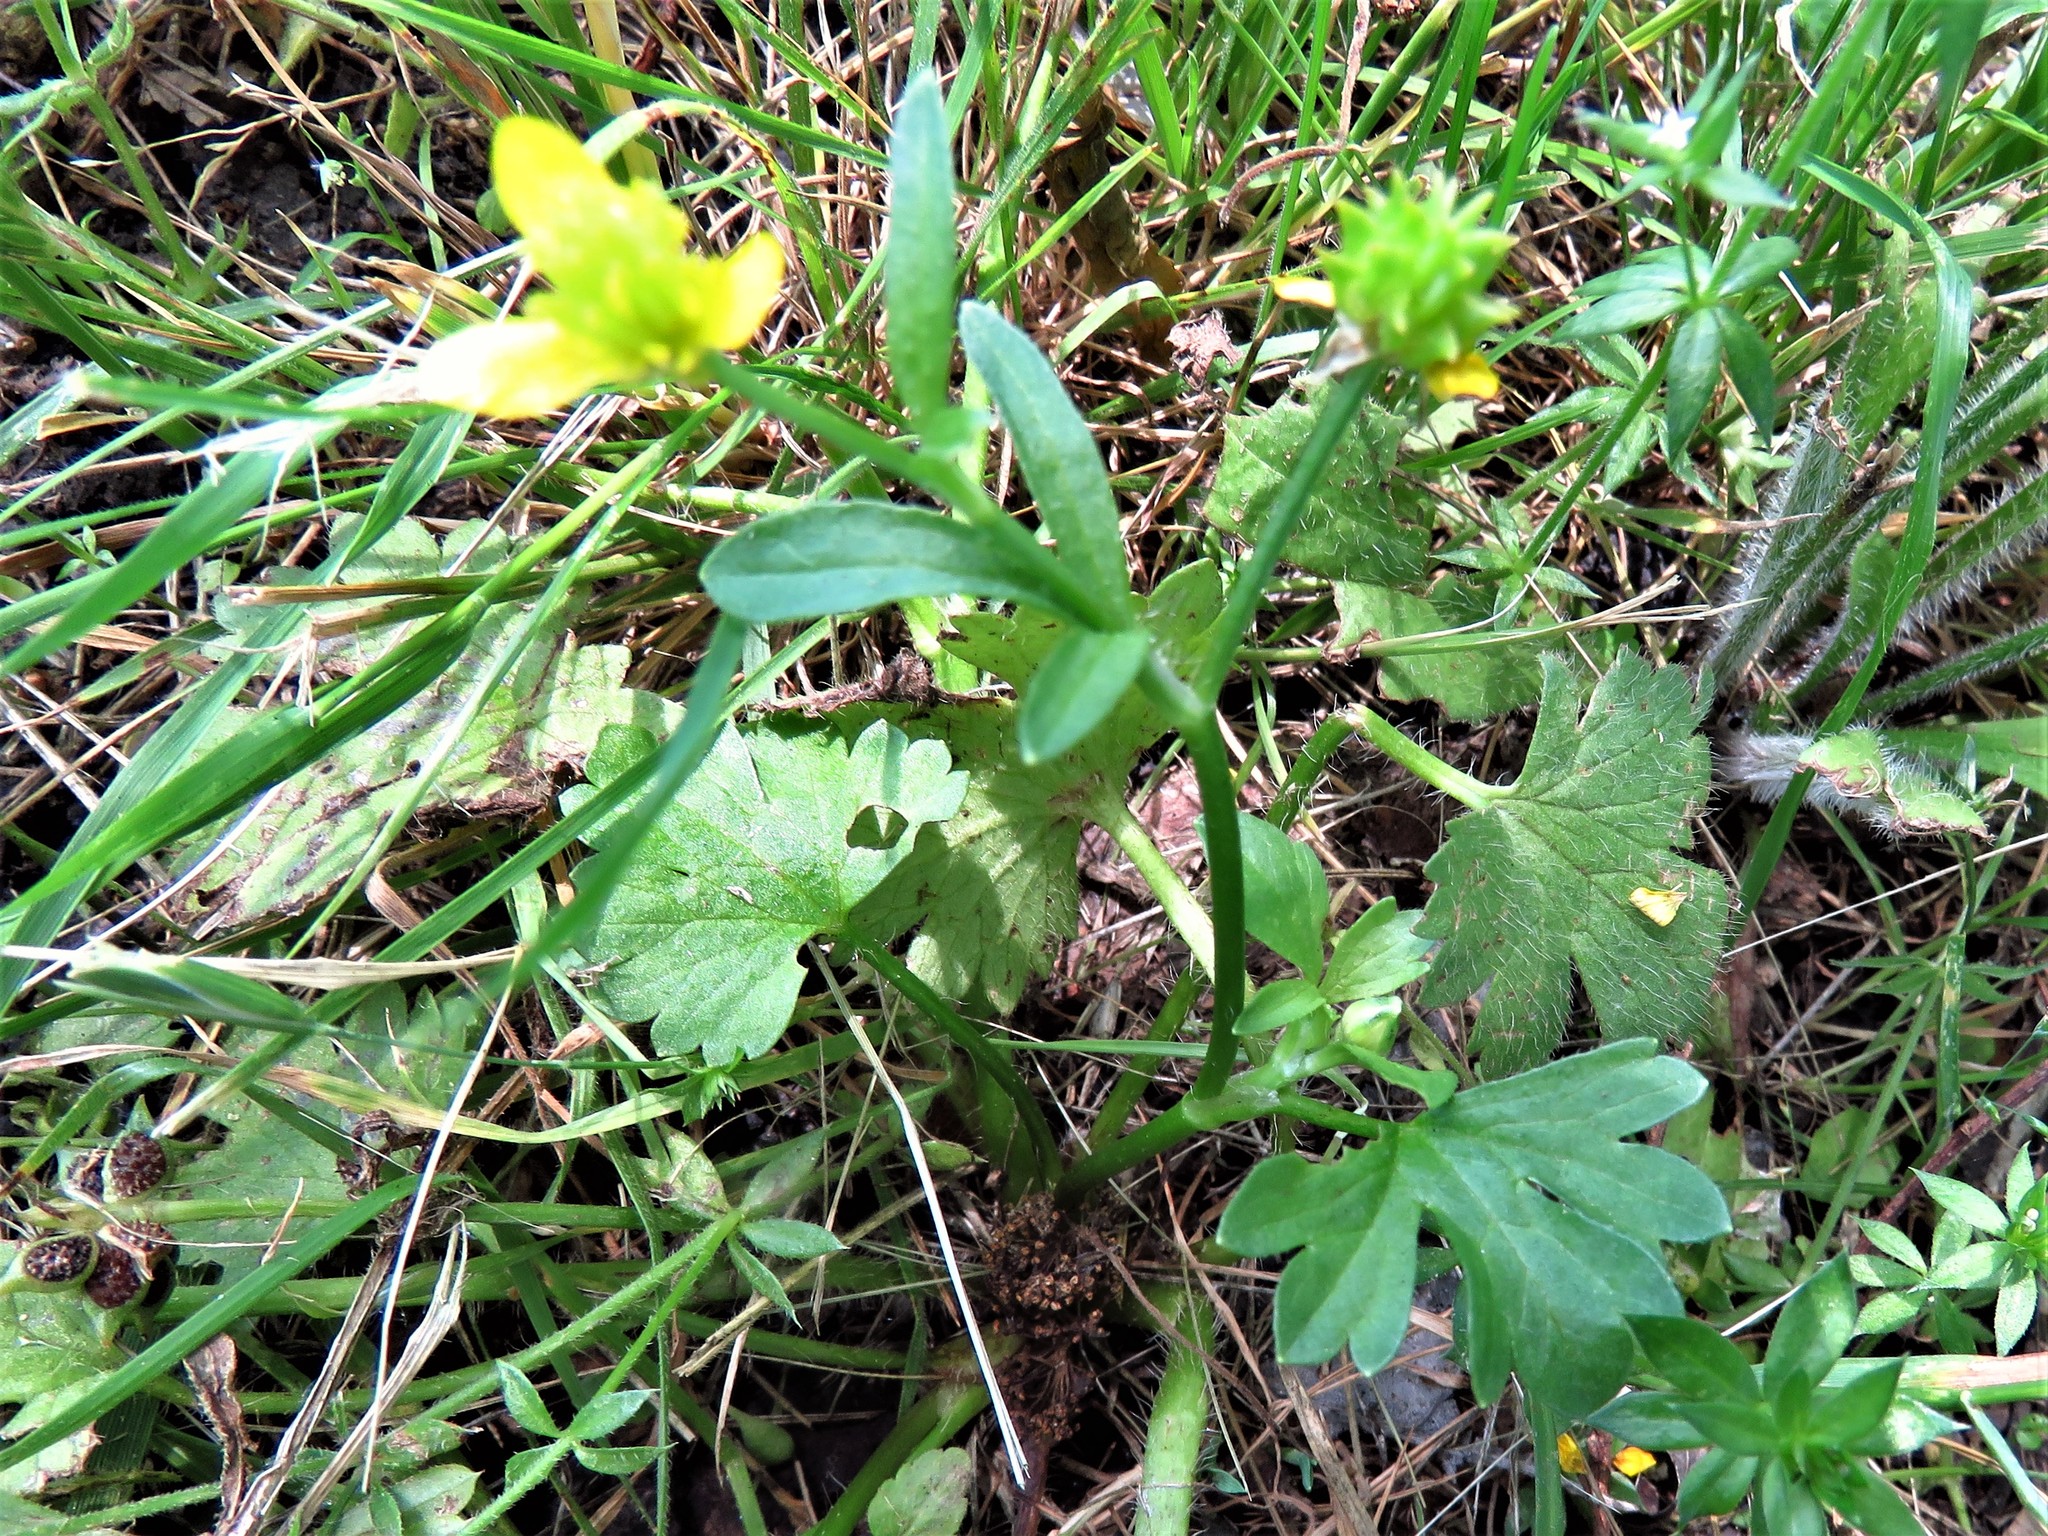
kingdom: Plantae
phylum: Tracheophyta
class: Magnoliopsida
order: Ranunculales
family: Ranunculaceae
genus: Ranunculus
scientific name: Ranunculus muricatus
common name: Rough-fruited buttercup
